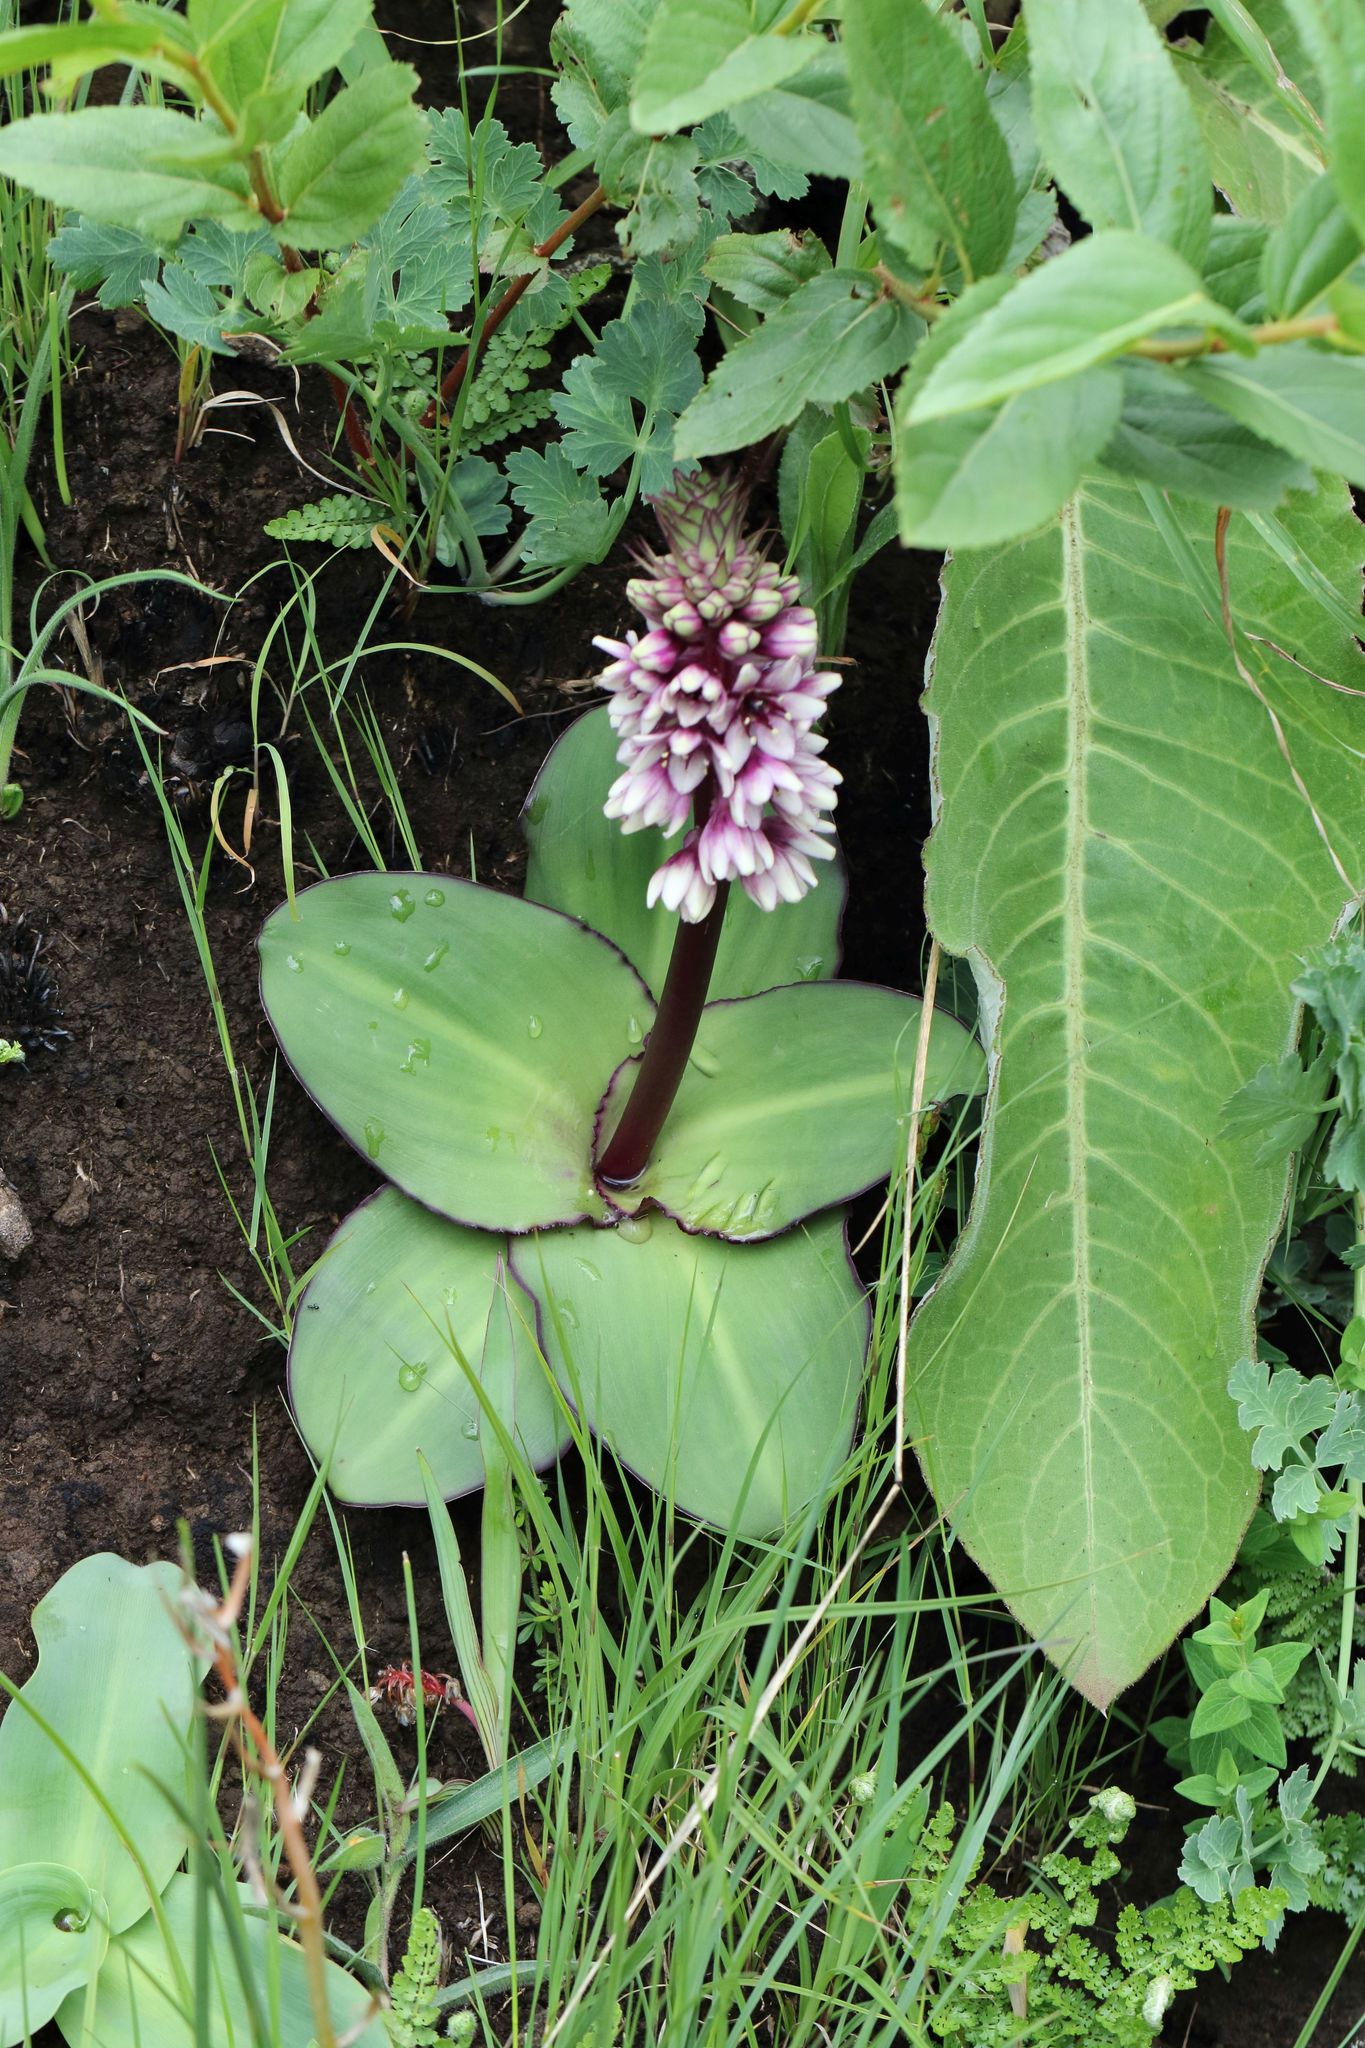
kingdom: Plantae
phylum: Tracheophyta
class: Liliopsida
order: Asparagales
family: Asparagaceae
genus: Eucomis
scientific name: Eucomis humilis
